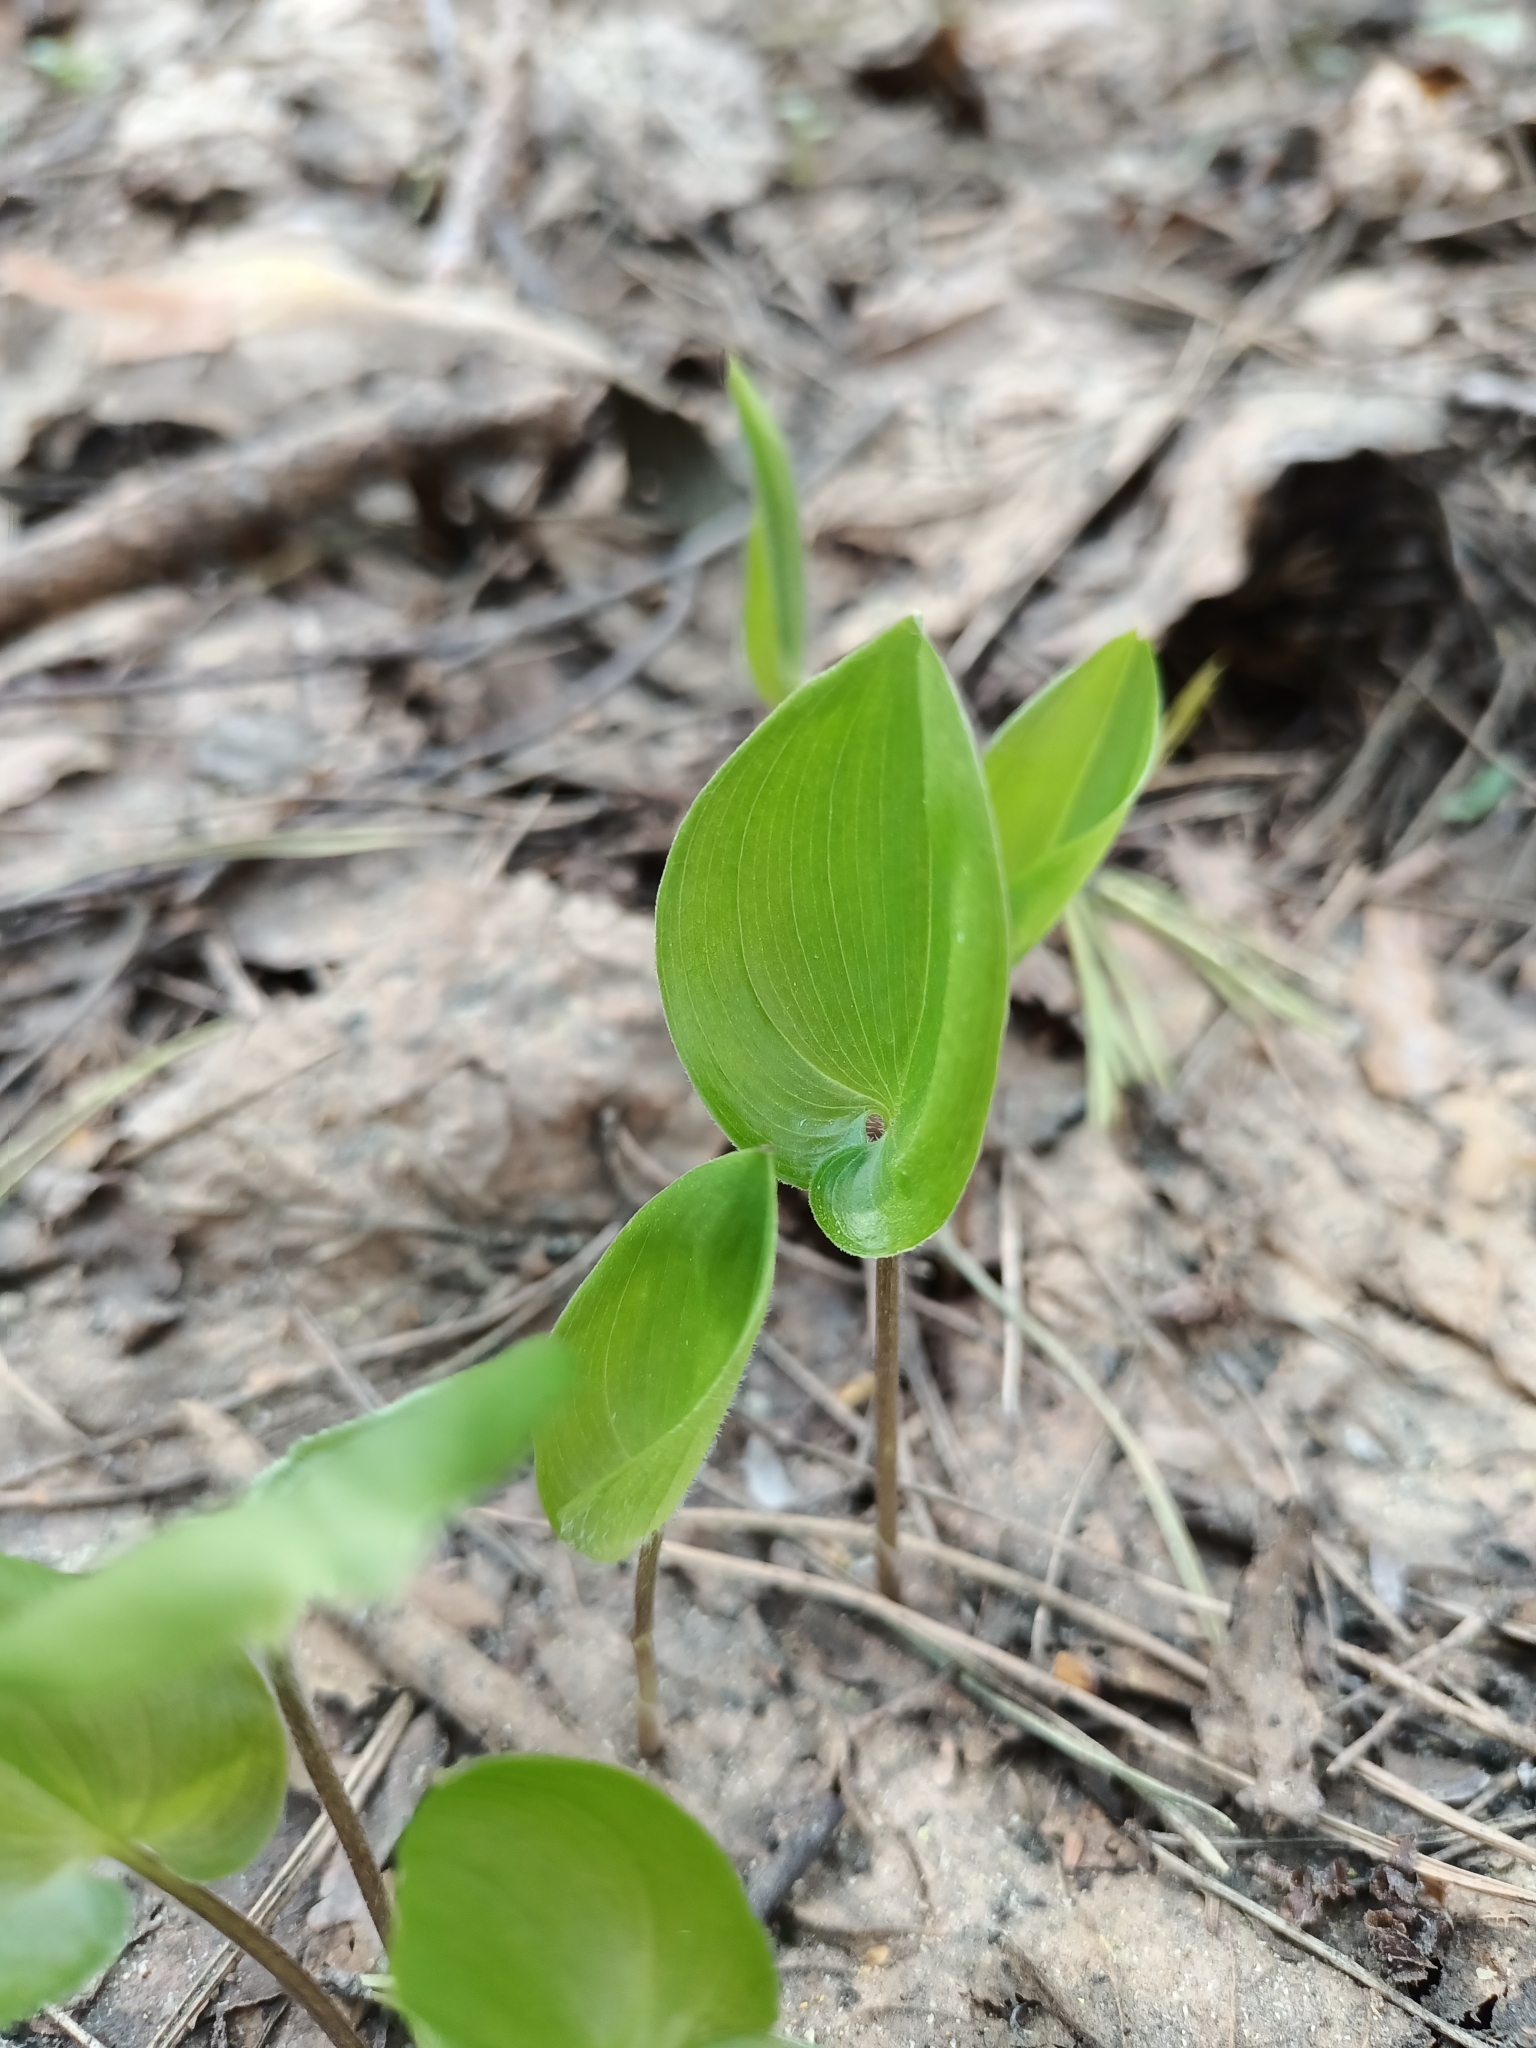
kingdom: Plantae
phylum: Tracheophyta
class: Liliopsida
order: Asparagales
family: Asparagaceae
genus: Maianthemum
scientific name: Maianthemum bifolium
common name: May lily
